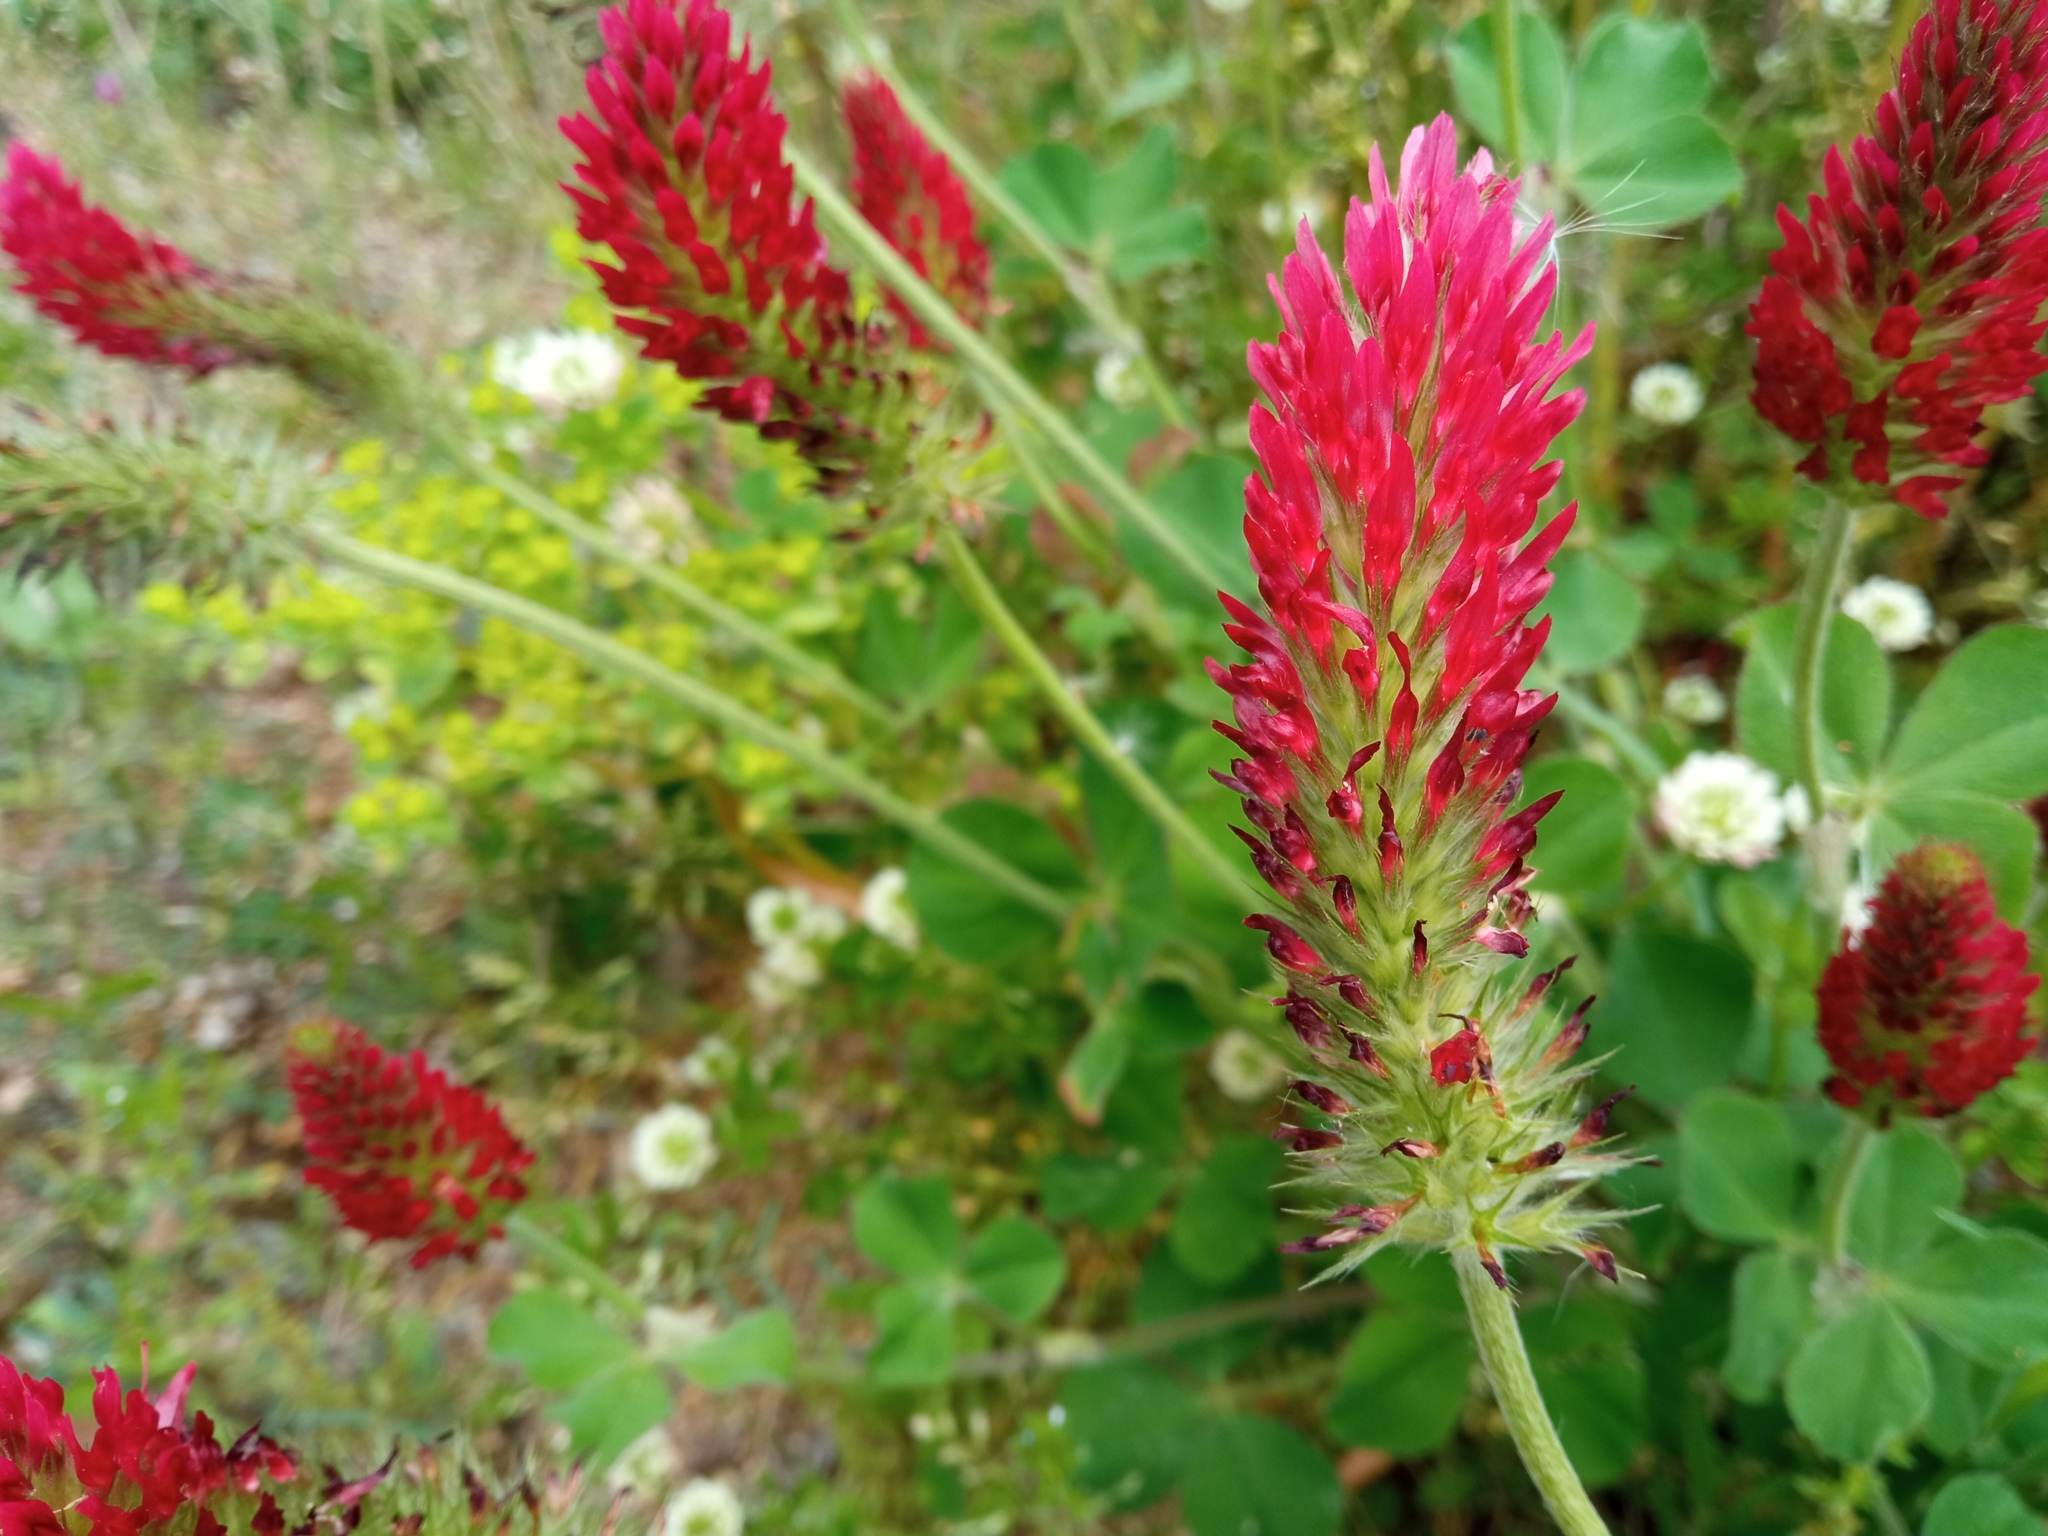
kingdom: Plantae
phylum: Tracheophyta
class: Magnoliopsida
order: Fabales
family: Fabaceae
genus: Trifolium
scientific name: Trifolium incarnatum
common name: Crimson clover
